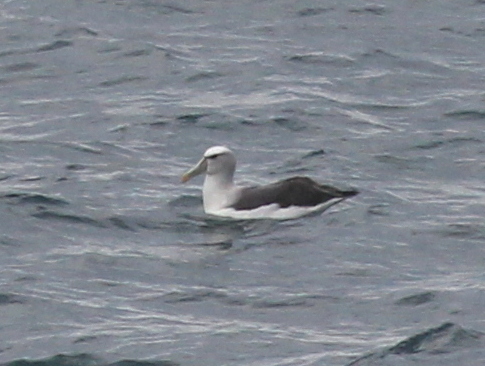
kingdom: Animalia
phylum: Chordata
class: Aves
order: Procellariiformes
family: Diomedeidae
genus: Thalassarche
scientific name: Thalassarche cauta
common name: Shy albatross
